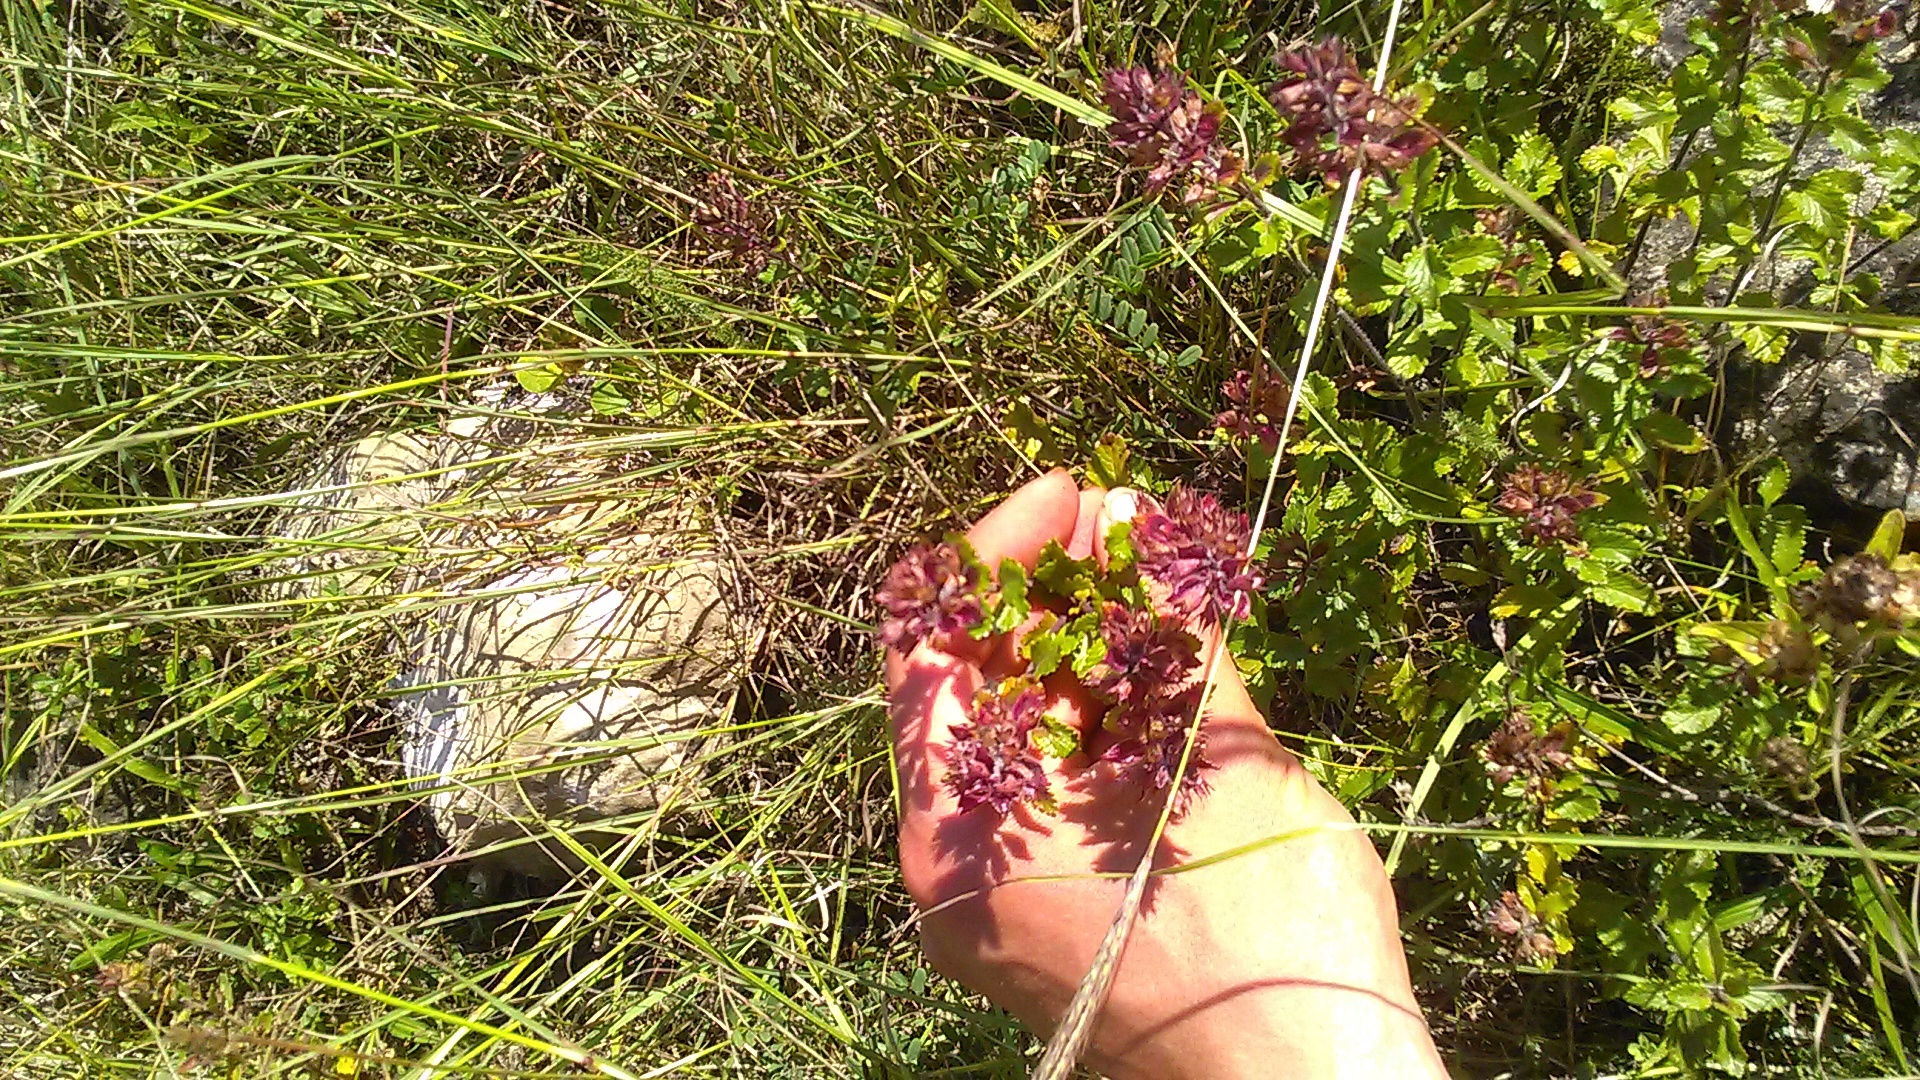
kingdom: Plantae
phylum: Tracheophyta
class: Magnoliopsida
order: Lamiales
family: Lamiaceae
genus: Teucrium
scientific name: Teucrium chamaedrys
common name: Wall germander
